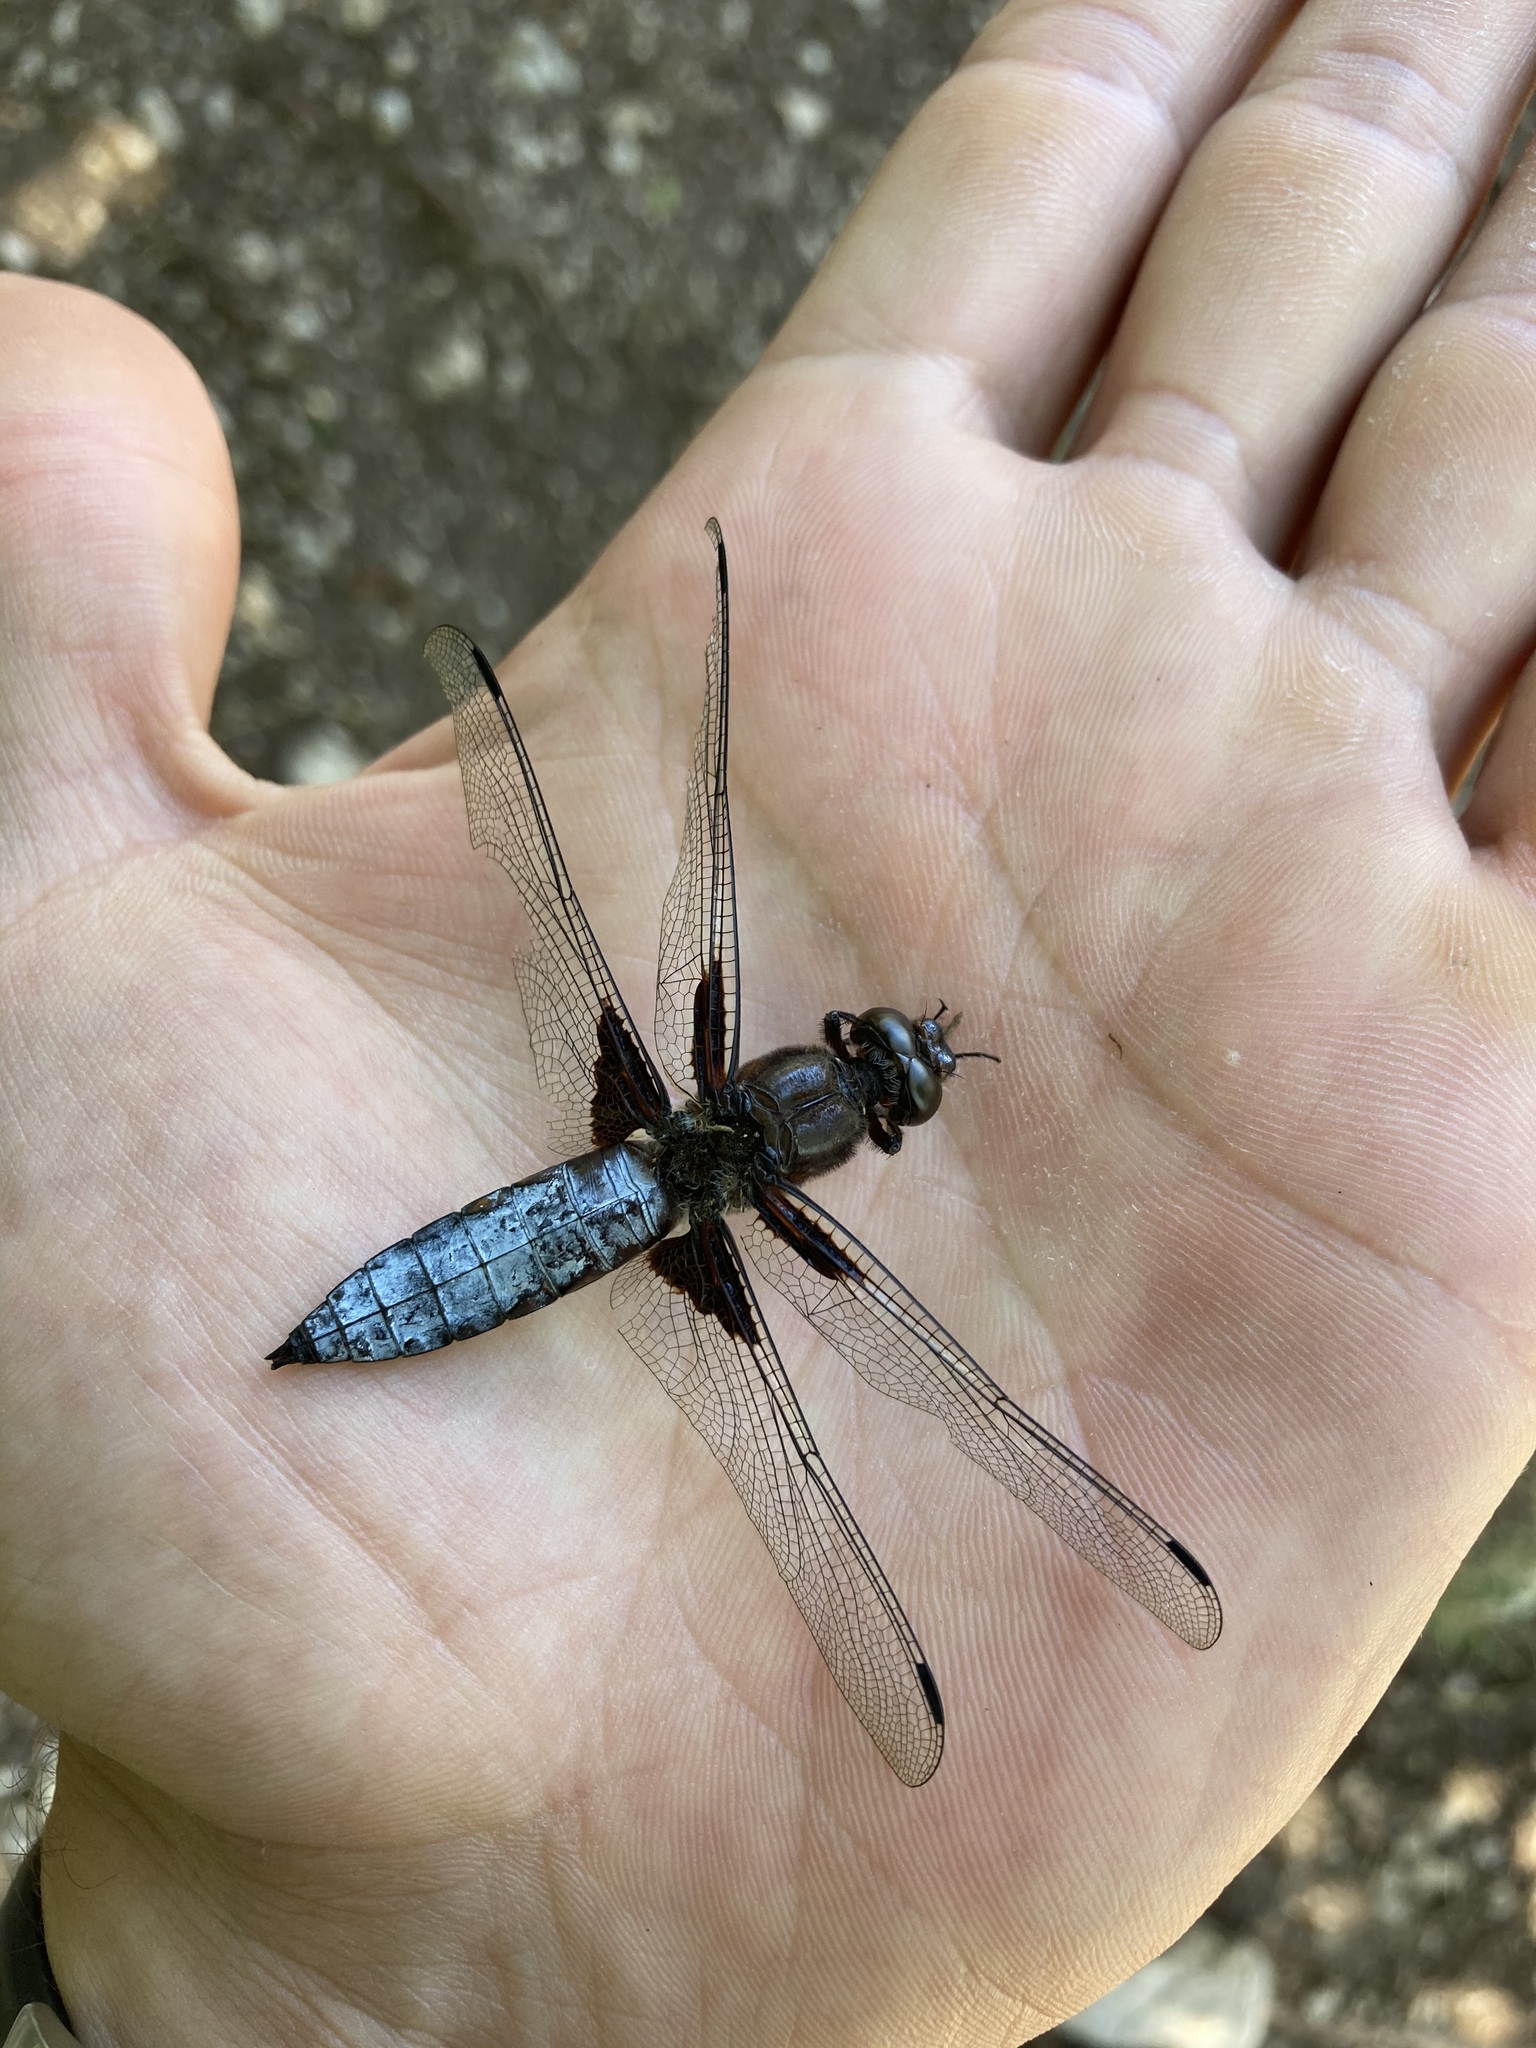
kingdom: Animalia
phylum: Arthropoda
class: Insecta
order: Odonata
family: Libellulidae
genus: Libellula
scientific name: Libellula depressa
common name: Broad-bodied chaser
